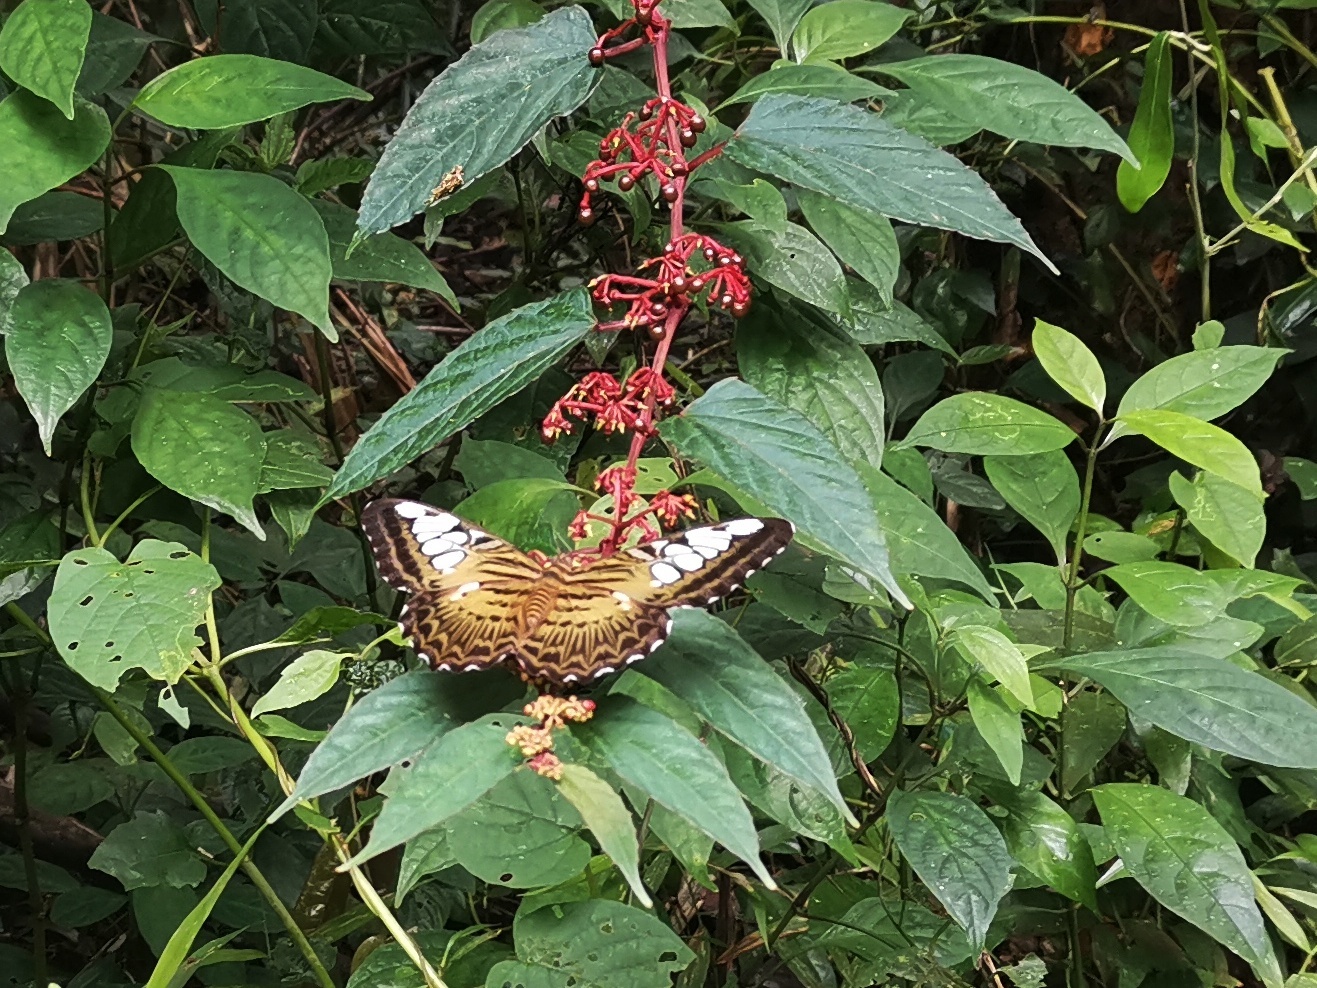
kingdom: Animalia
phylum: Arthropoda
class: Insecta
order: Lepidoptera
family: Nymphalidae
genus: Kallima
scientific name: Kallima sylvia
